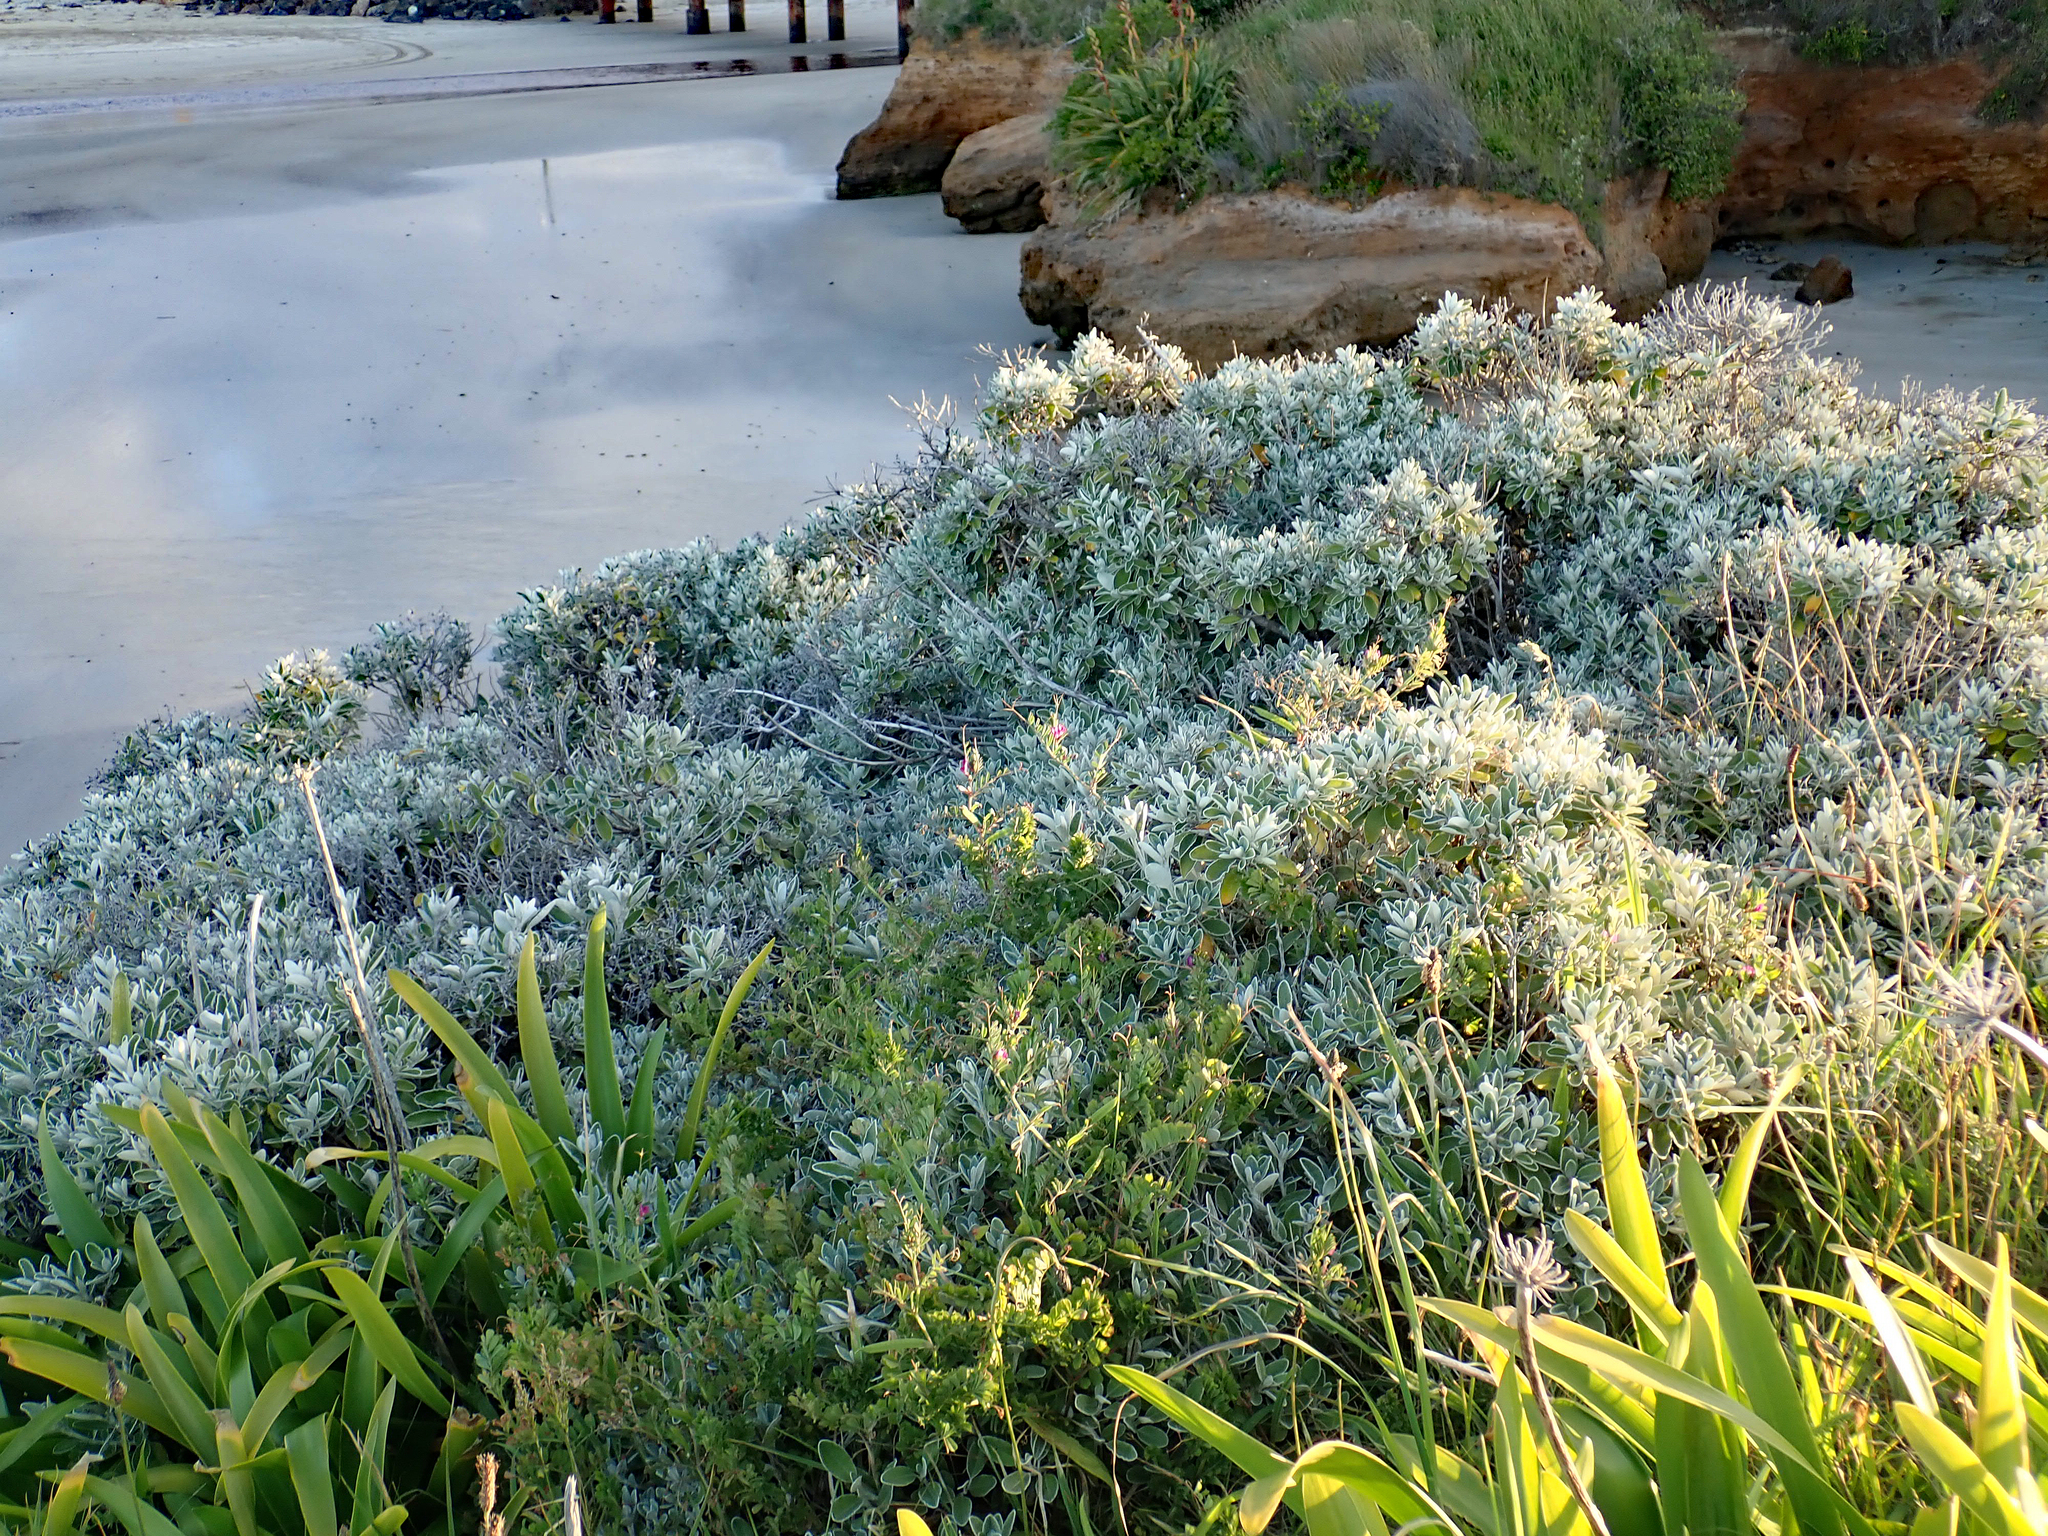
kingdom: Plantae
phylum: Tracheophyta
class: Liliopsida
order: Asparagales
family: Amaryllidaceae
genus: Agapanthus
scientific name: Agapanthus praecox
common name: African-lily
